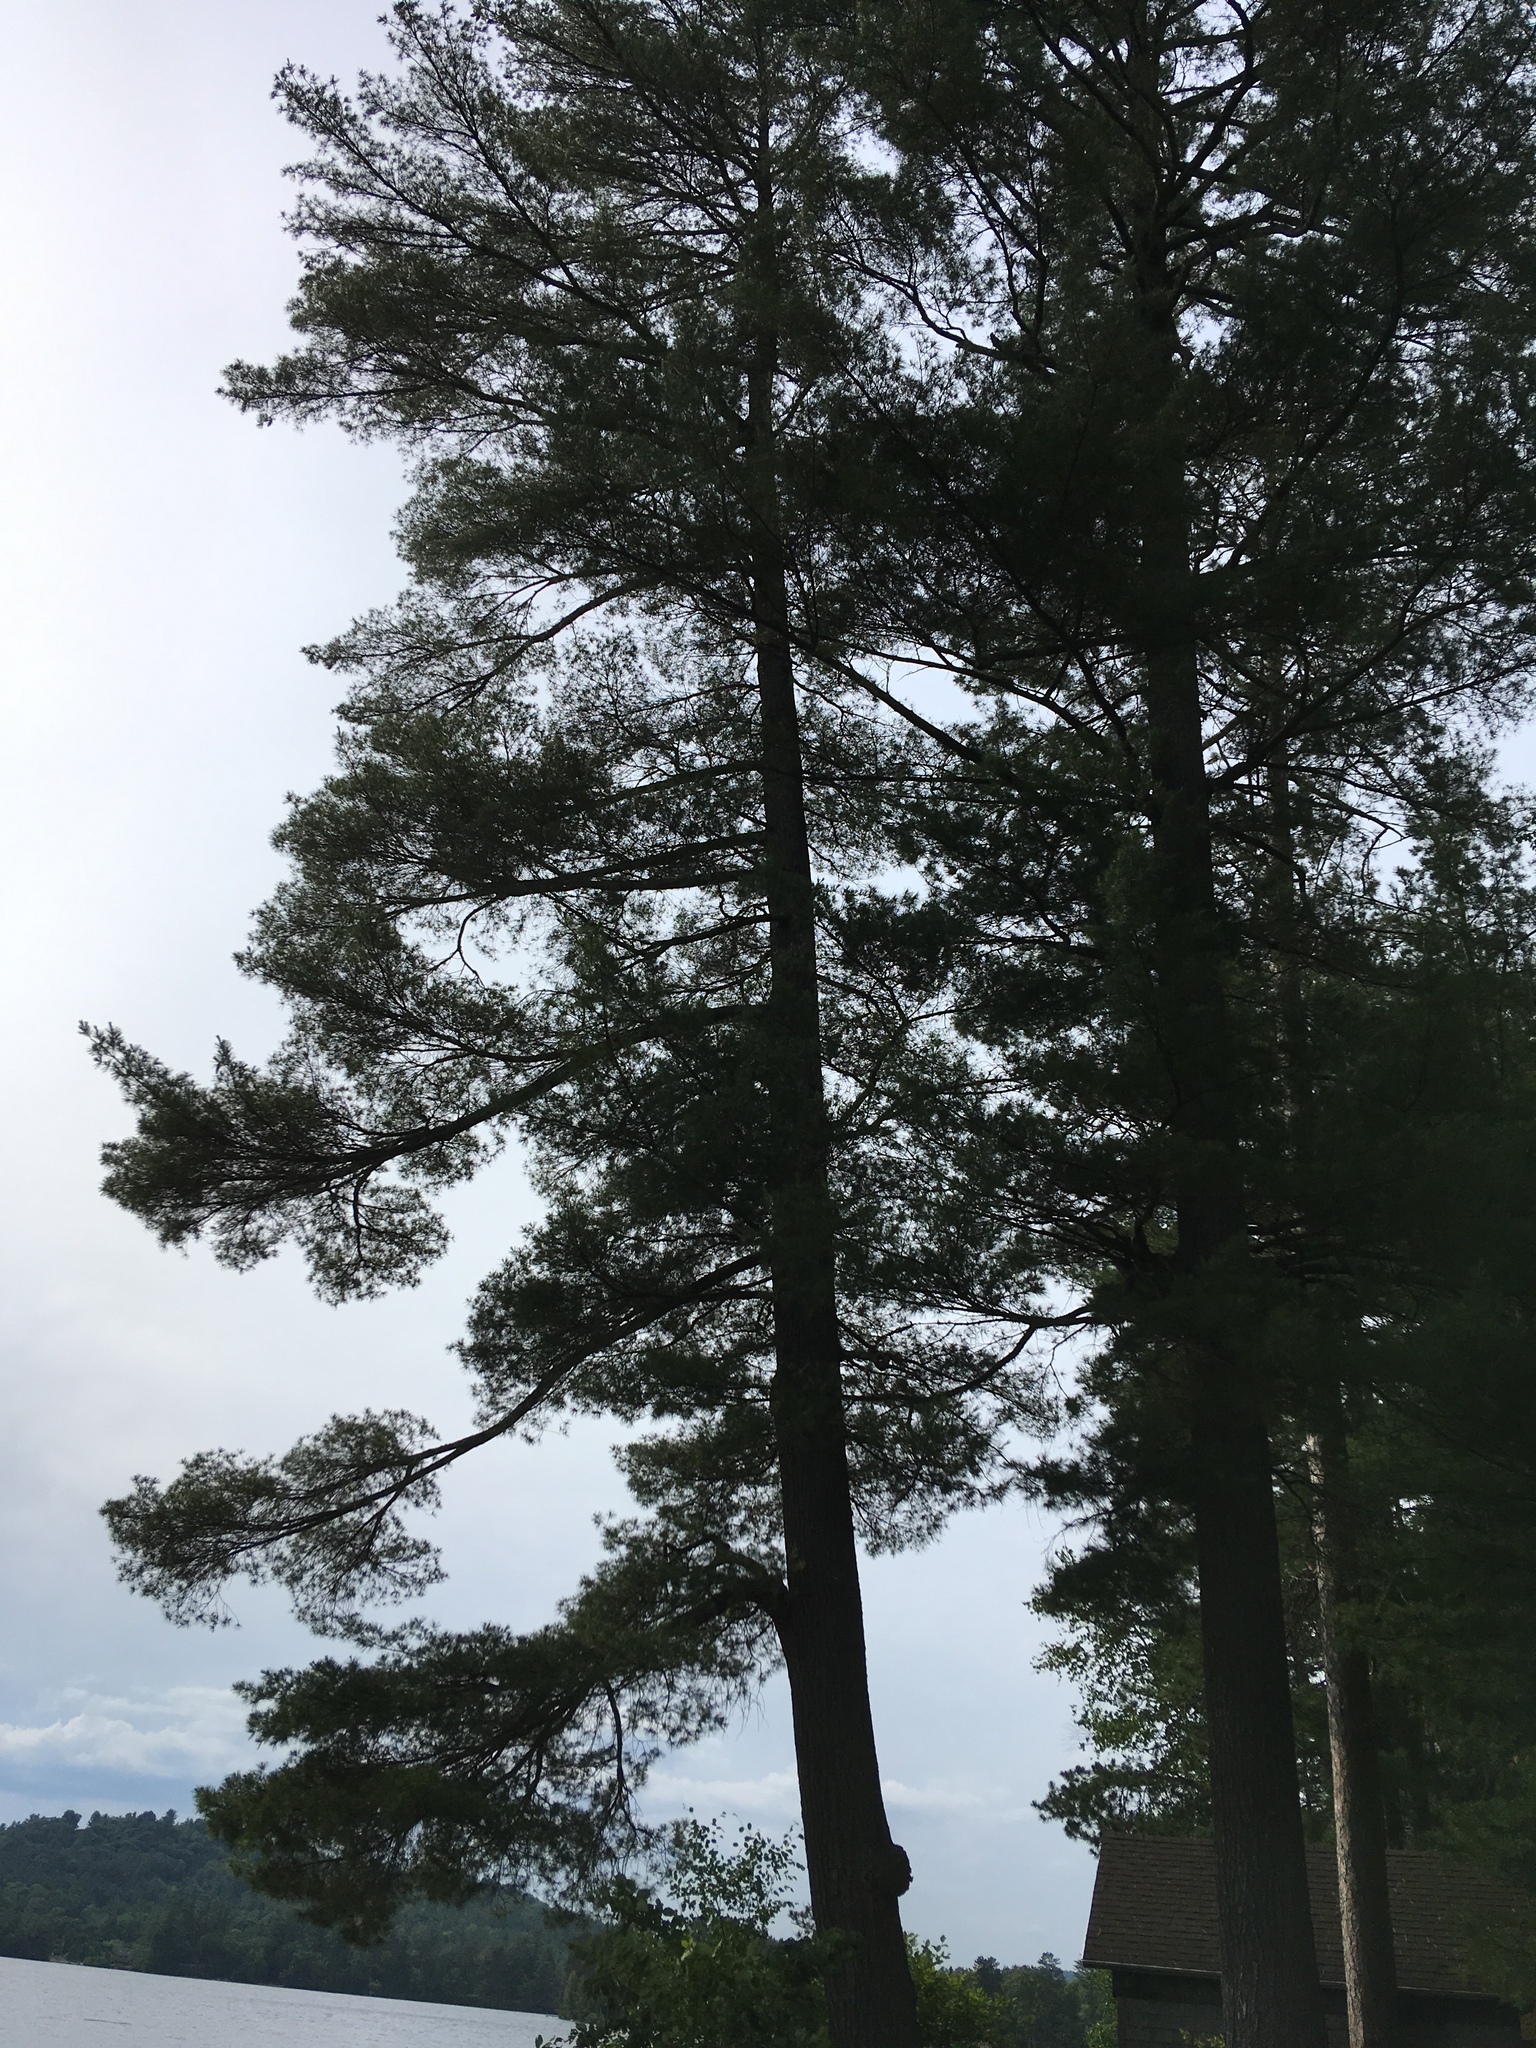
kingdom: Plantae
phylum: Tracheophyta
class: Pinopsida
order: Pinales
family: Pinaceae
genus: Pinus
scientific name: Pinus strobus
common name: Weymouth pine
